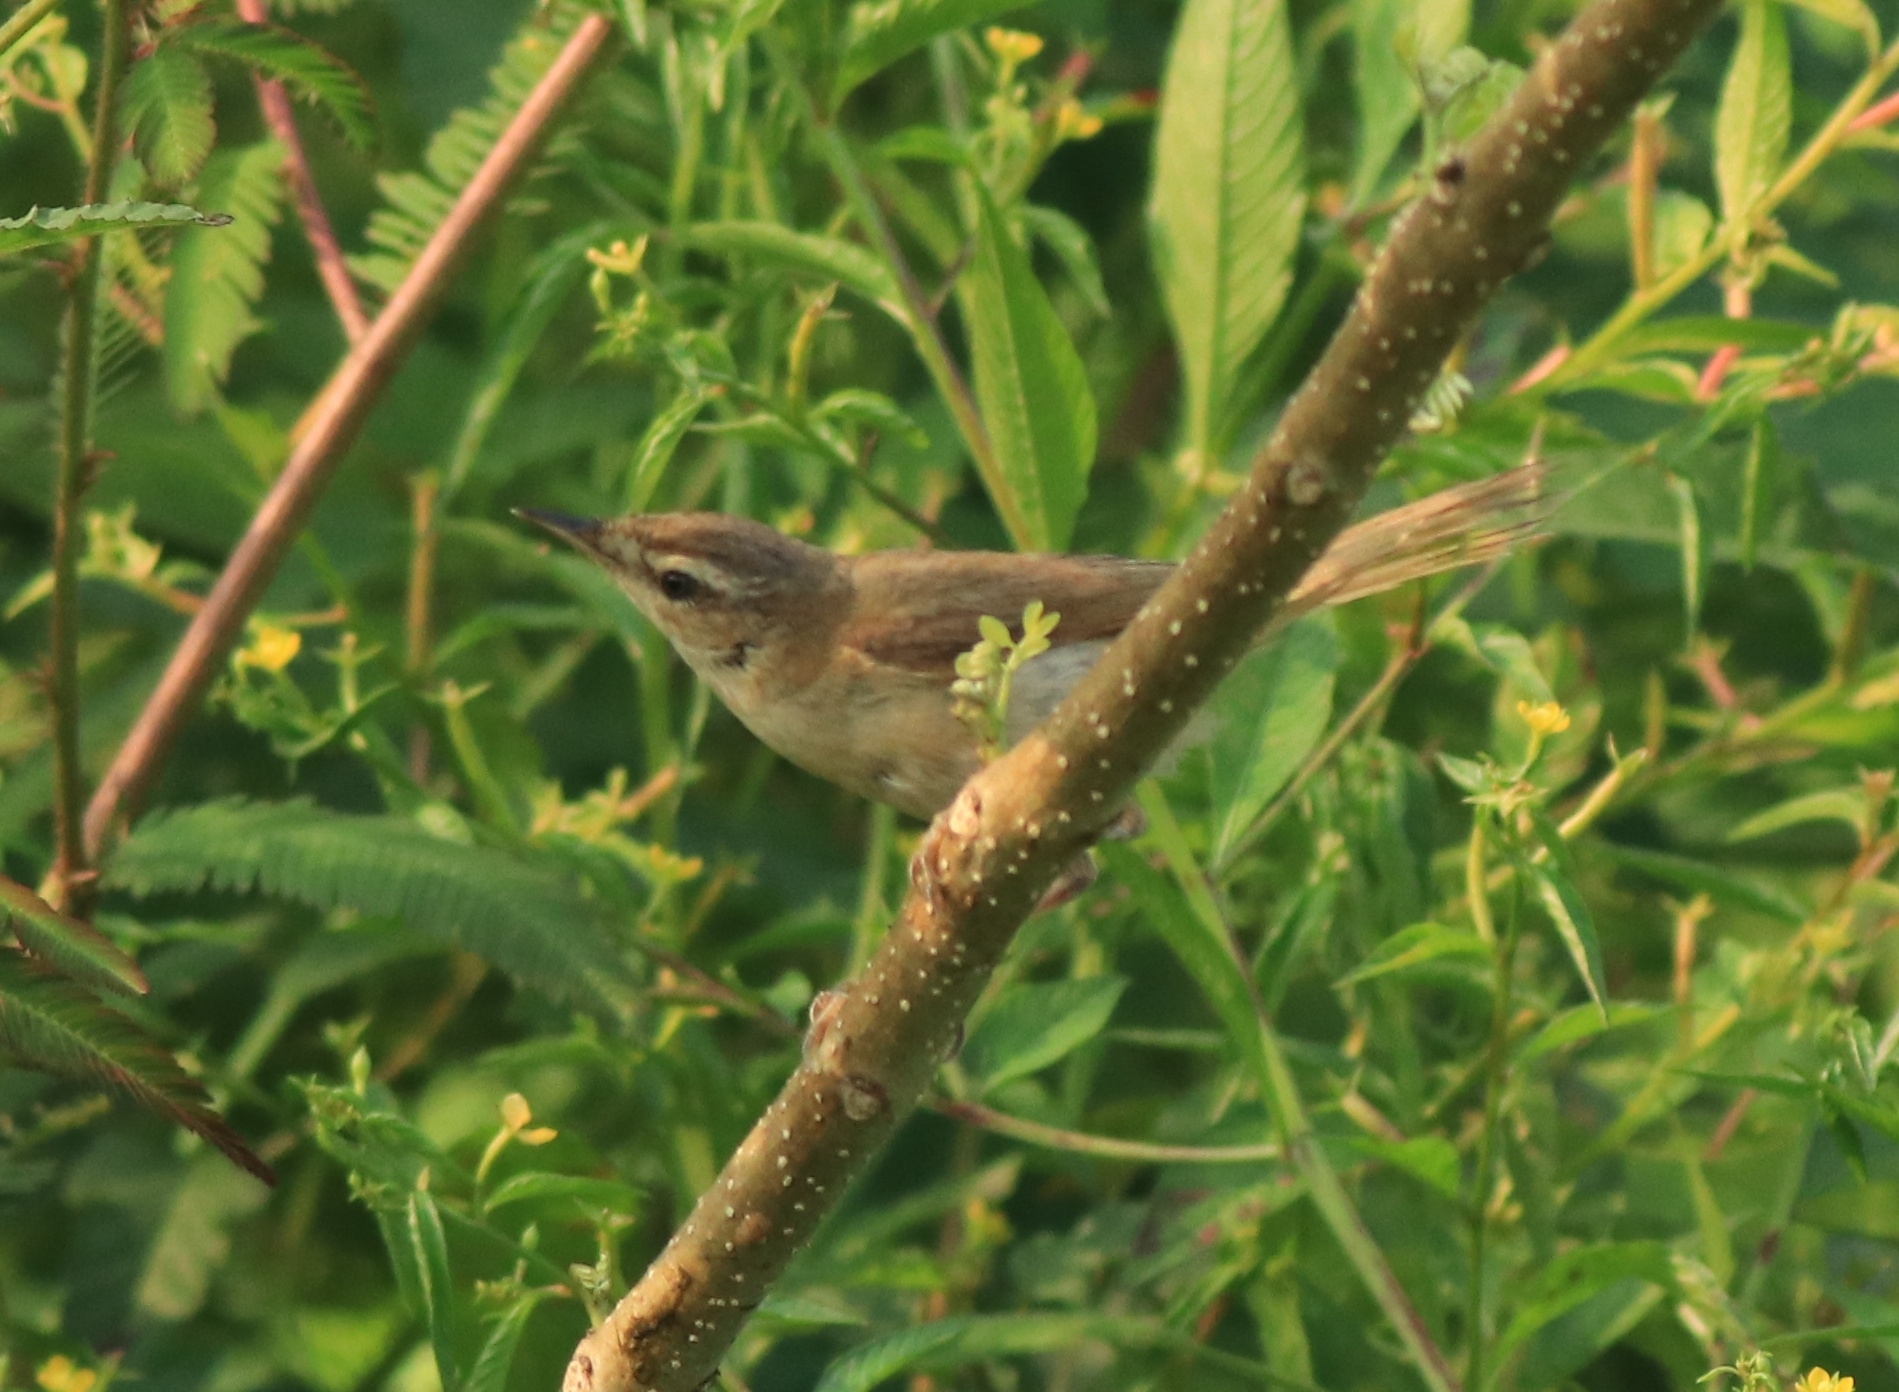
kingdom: Animalia
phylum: Chordata
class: Aves
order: Passeriformes
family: Acrocephalidae
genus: Acrocephalus
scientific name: Acrocephalus agricola
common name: Paddyfield warbler
